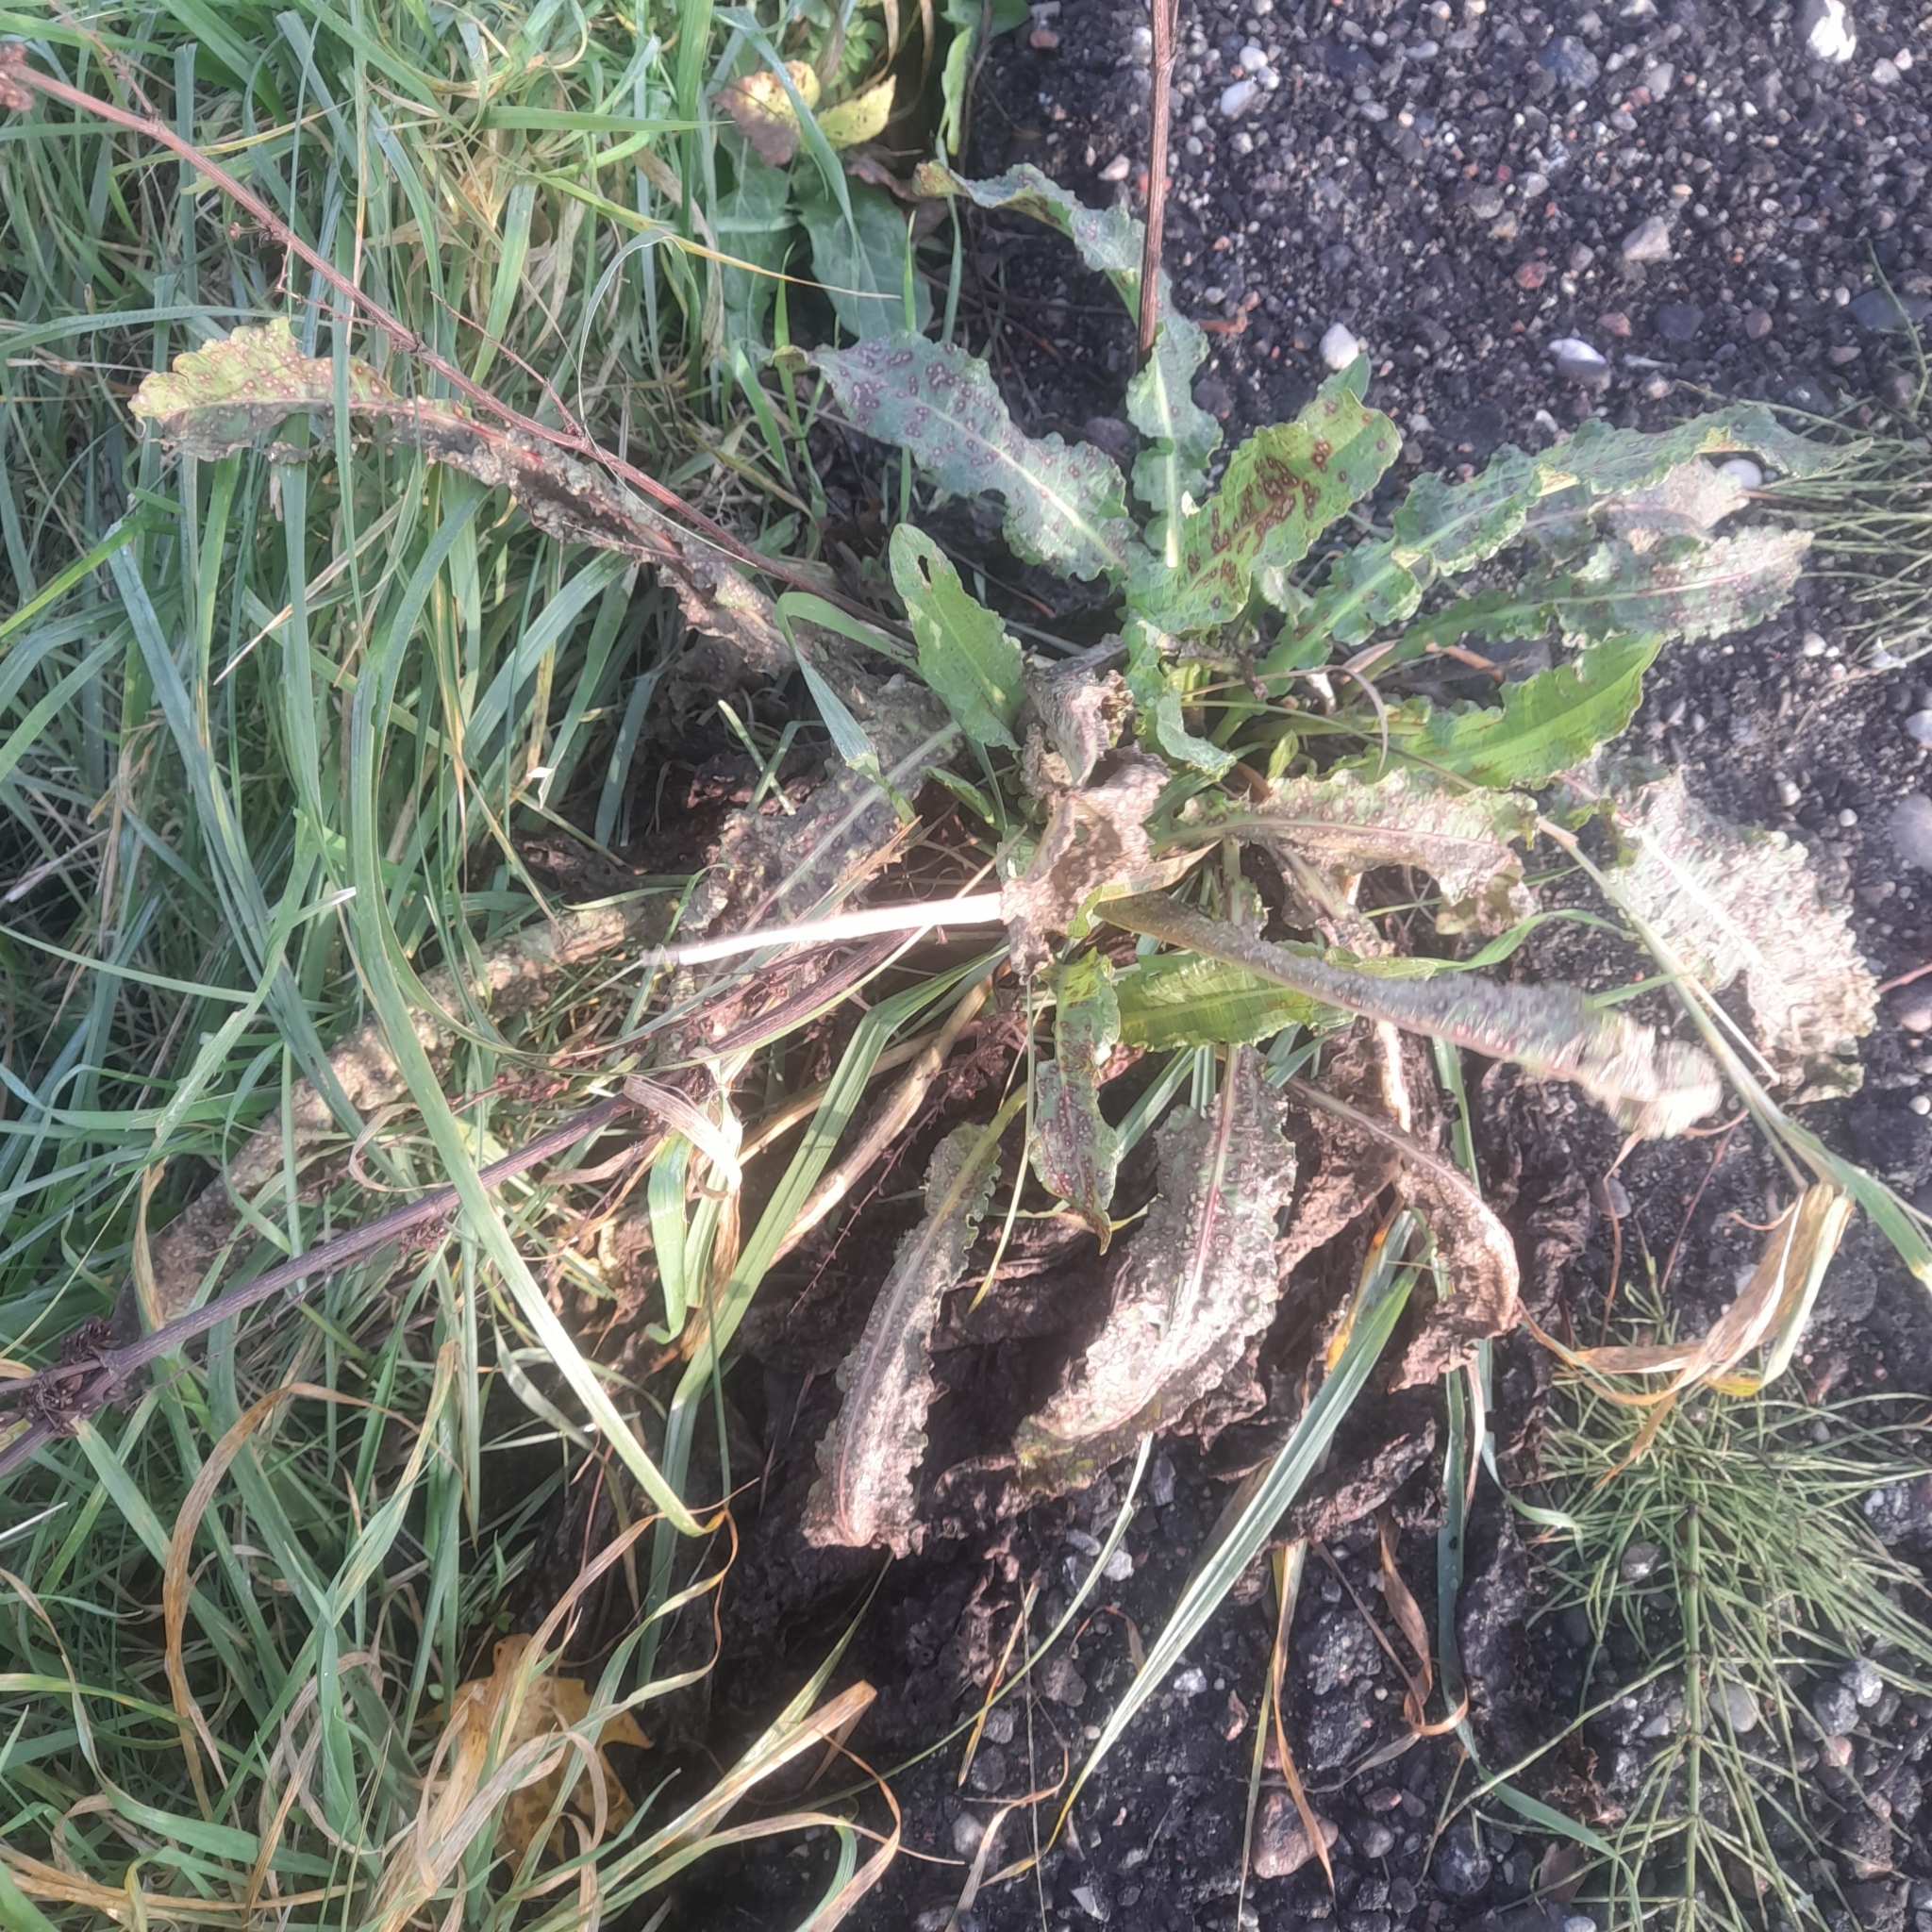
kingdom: Plantae
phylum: Tracheophyta
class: Magnoliopsida
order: Caryophyllales
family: Polygonaceae
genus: Rumex
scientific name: Rumex crispus
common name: Curled dock
